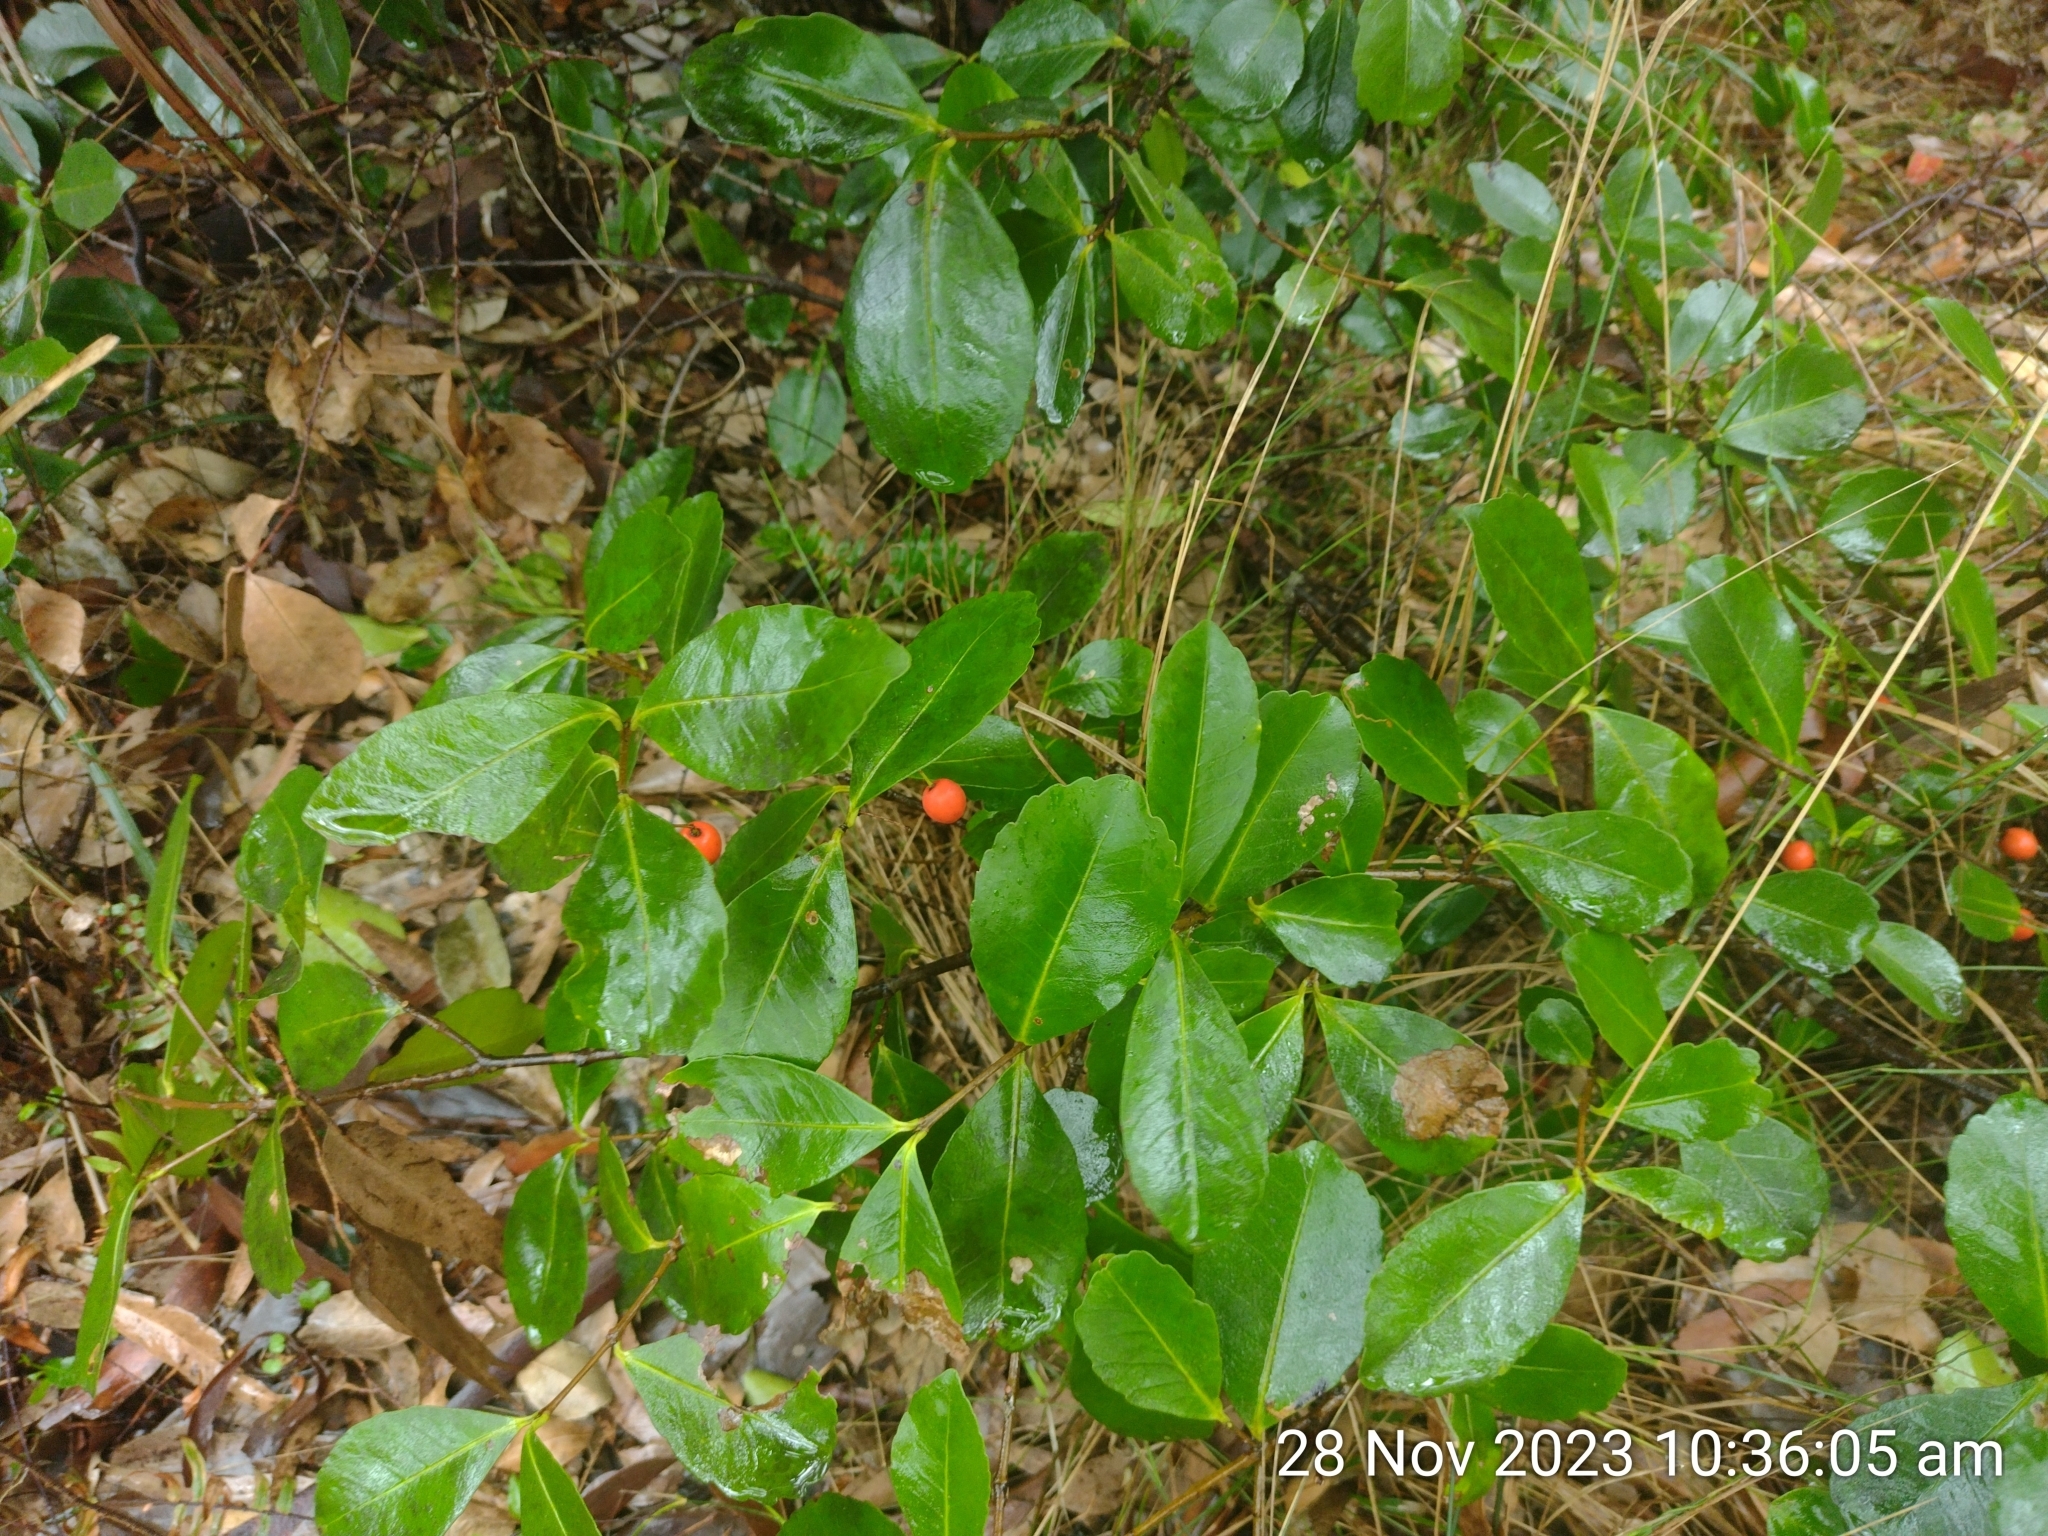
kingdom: Plantae
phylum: Tracheophyta
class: Magnoliopsida
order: Celastrales
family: Celastraceae
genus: Elaeodendron
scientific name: Elaeodendron australe
